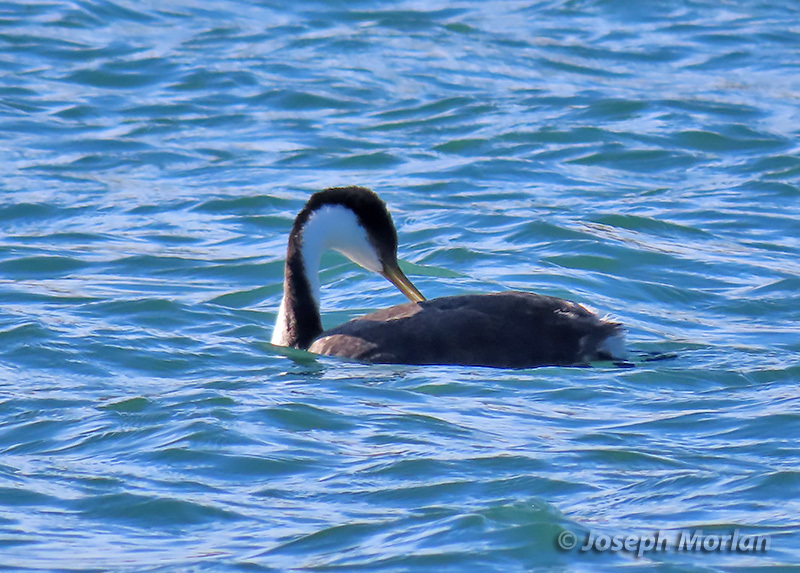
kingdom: Animalia
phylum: Chordata
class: Aves
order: Podicipediformes
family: Podicipedidae
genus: Aechmophorus
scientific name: Aechmophorus occidentalis
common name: Western grebe
